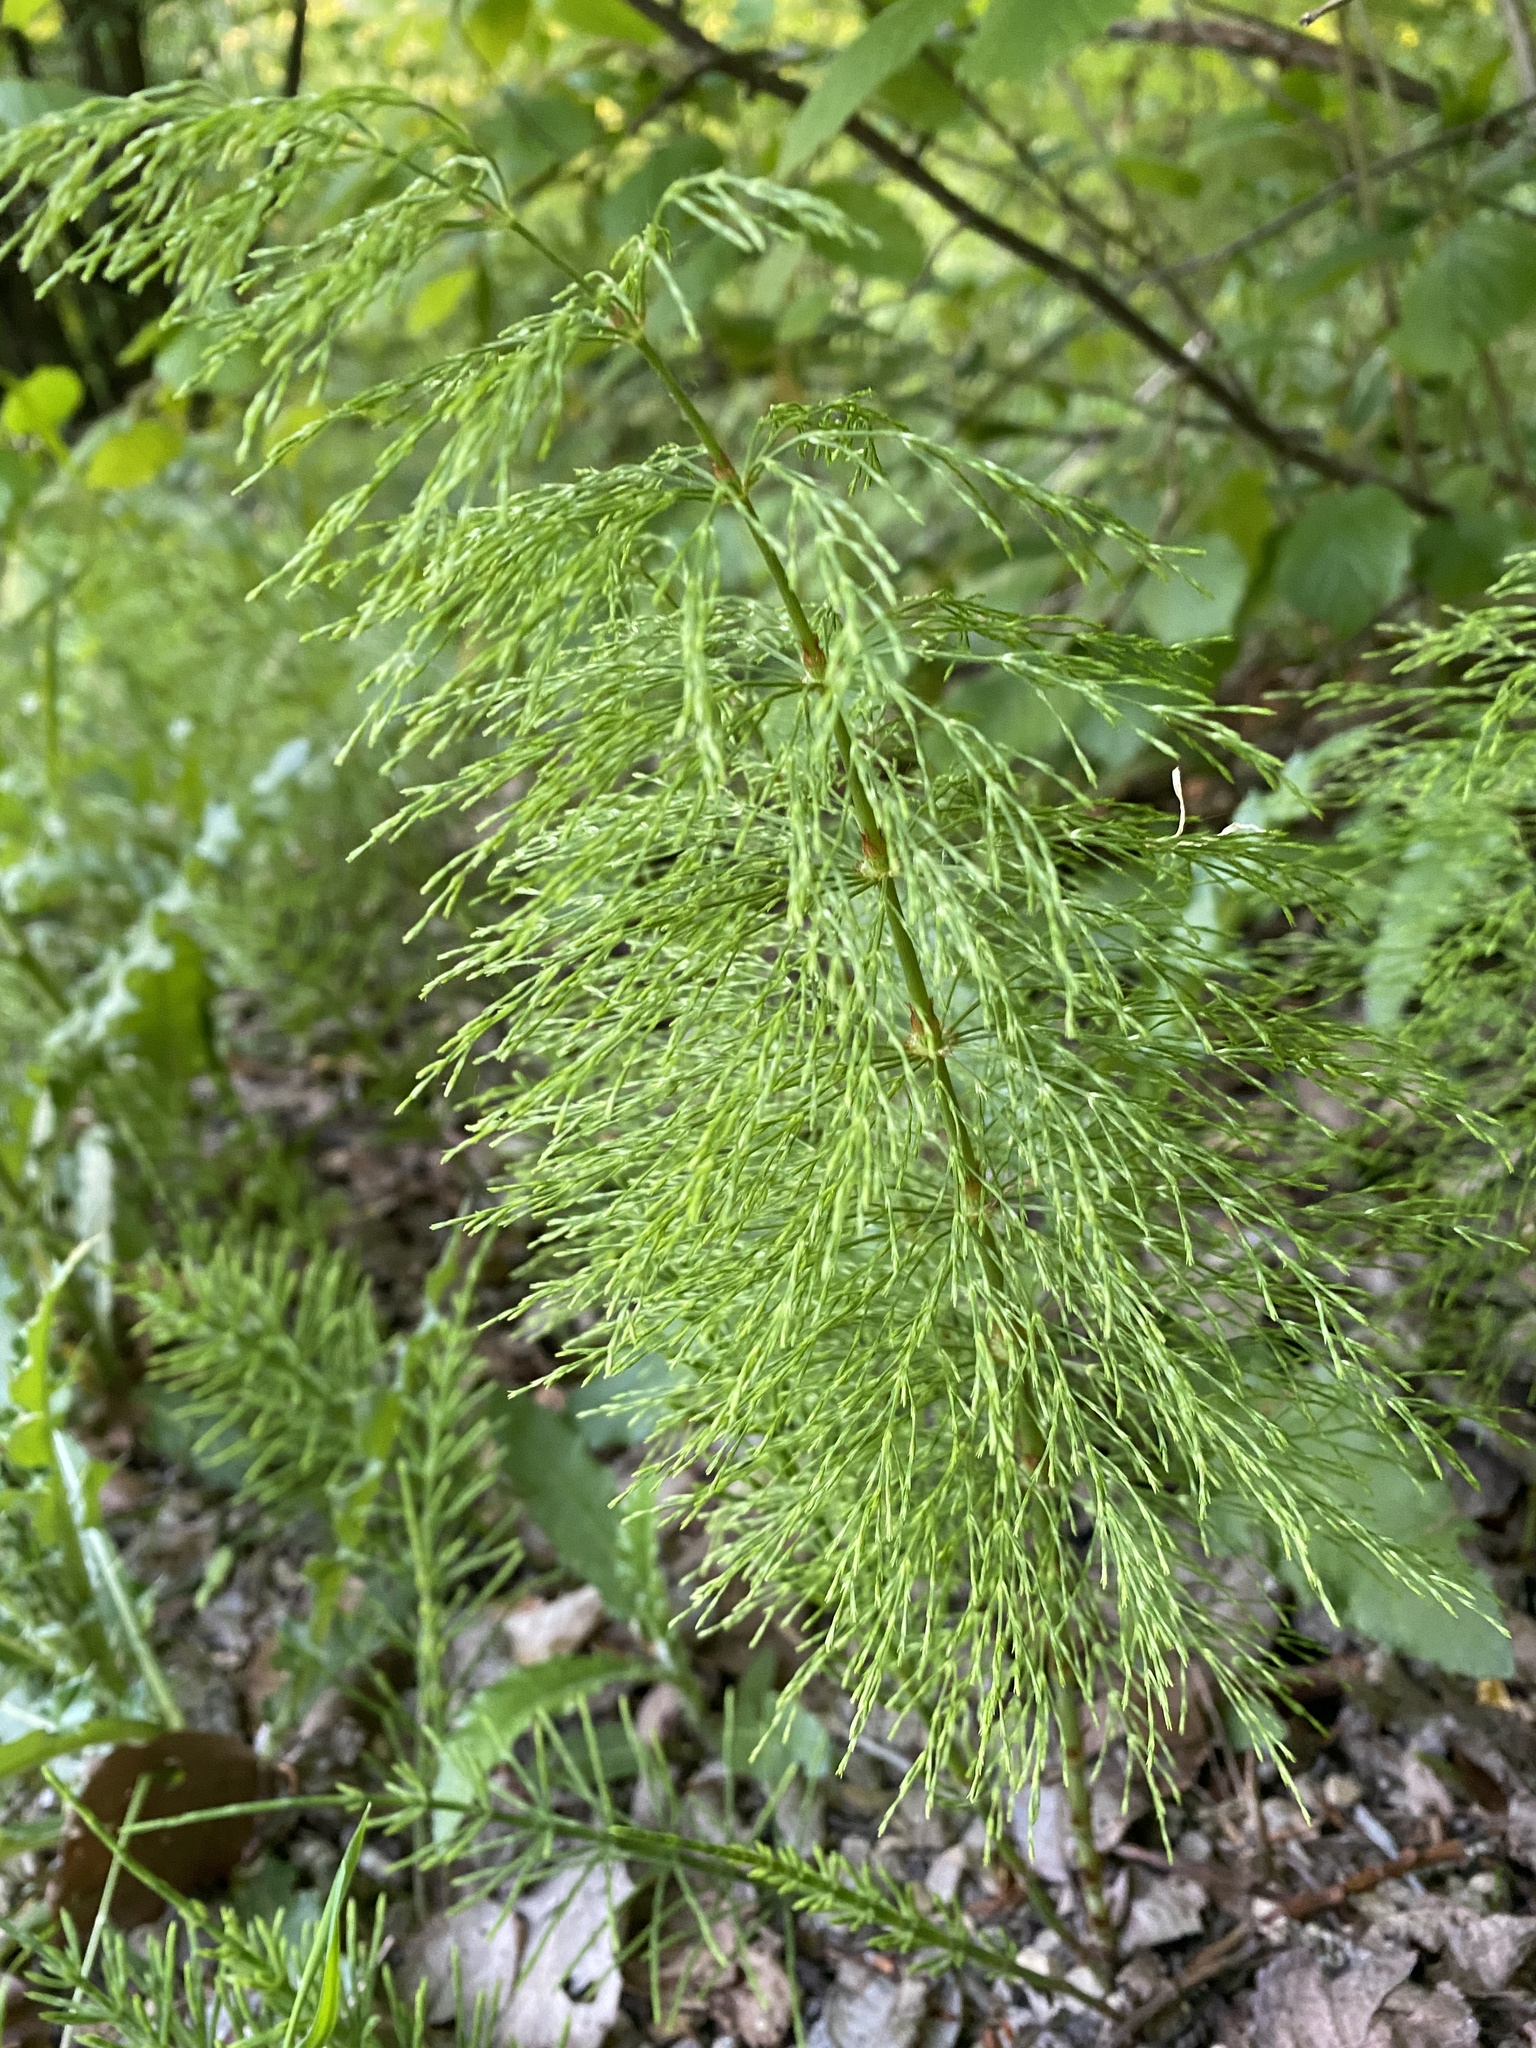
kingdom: Plantae
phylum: Tracheophyta
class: Polypodiopsida
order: Equisetales
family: Equisetaceae
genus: Equisetum
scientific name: Equisetum sylvaticum
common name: Wood horsetail
